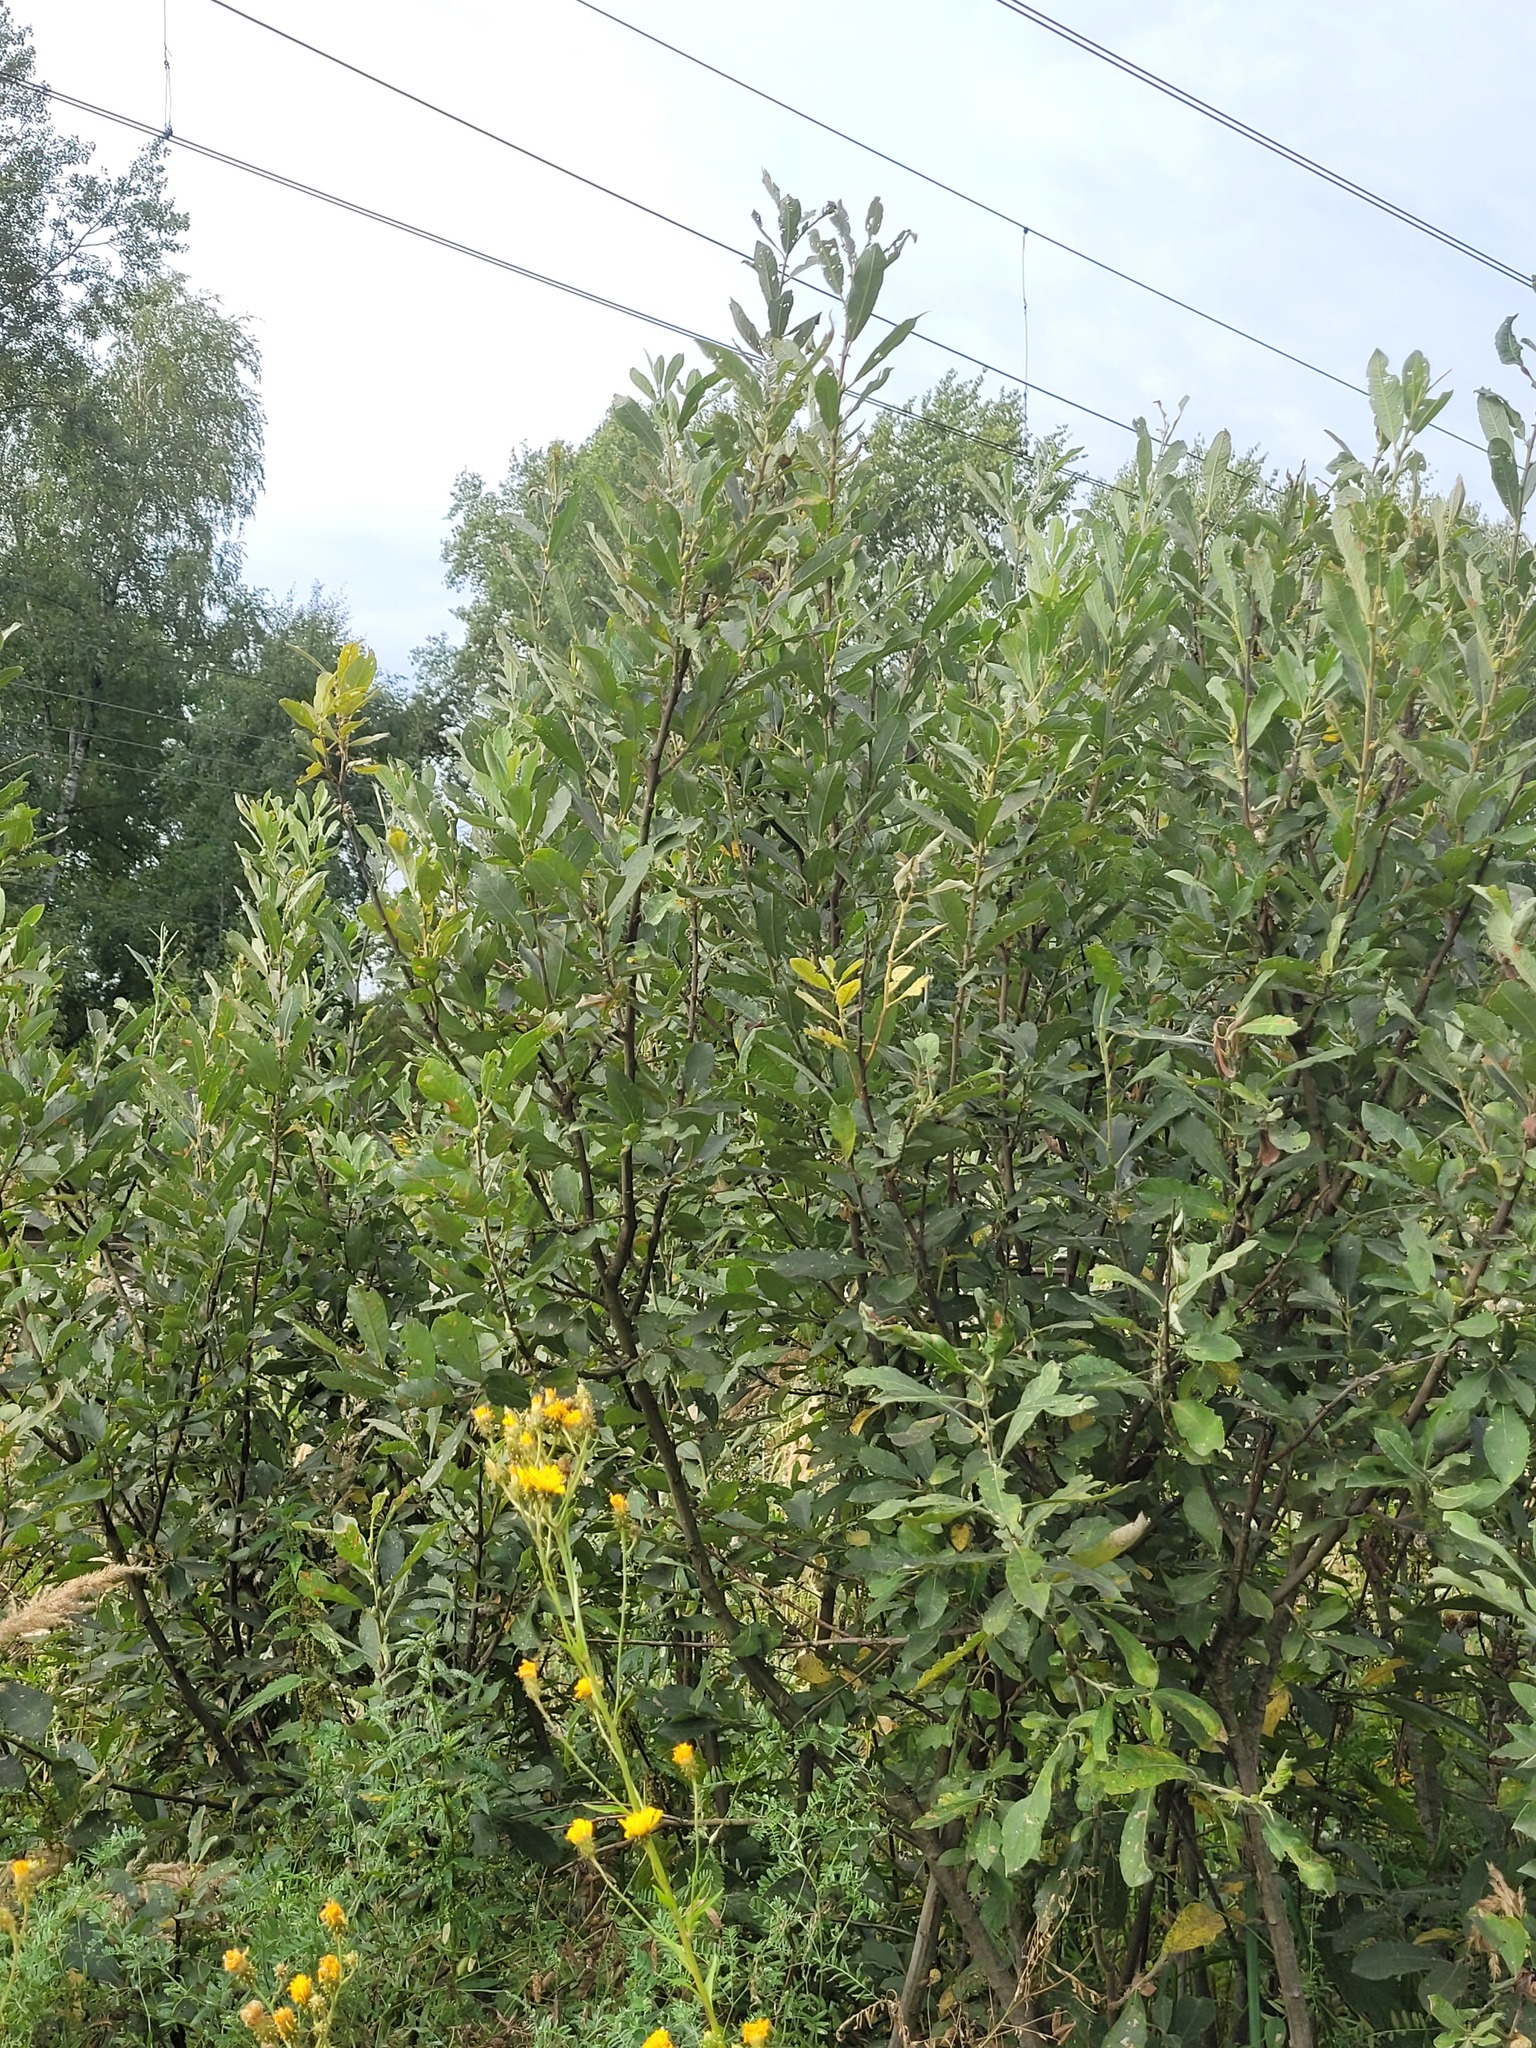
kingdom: Plantae
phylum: Tracheophyta
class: Magnoliopsida
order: Malpighiales
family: Salicaceae
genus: Salix
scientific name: Salix cinerea
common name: Common sallow
